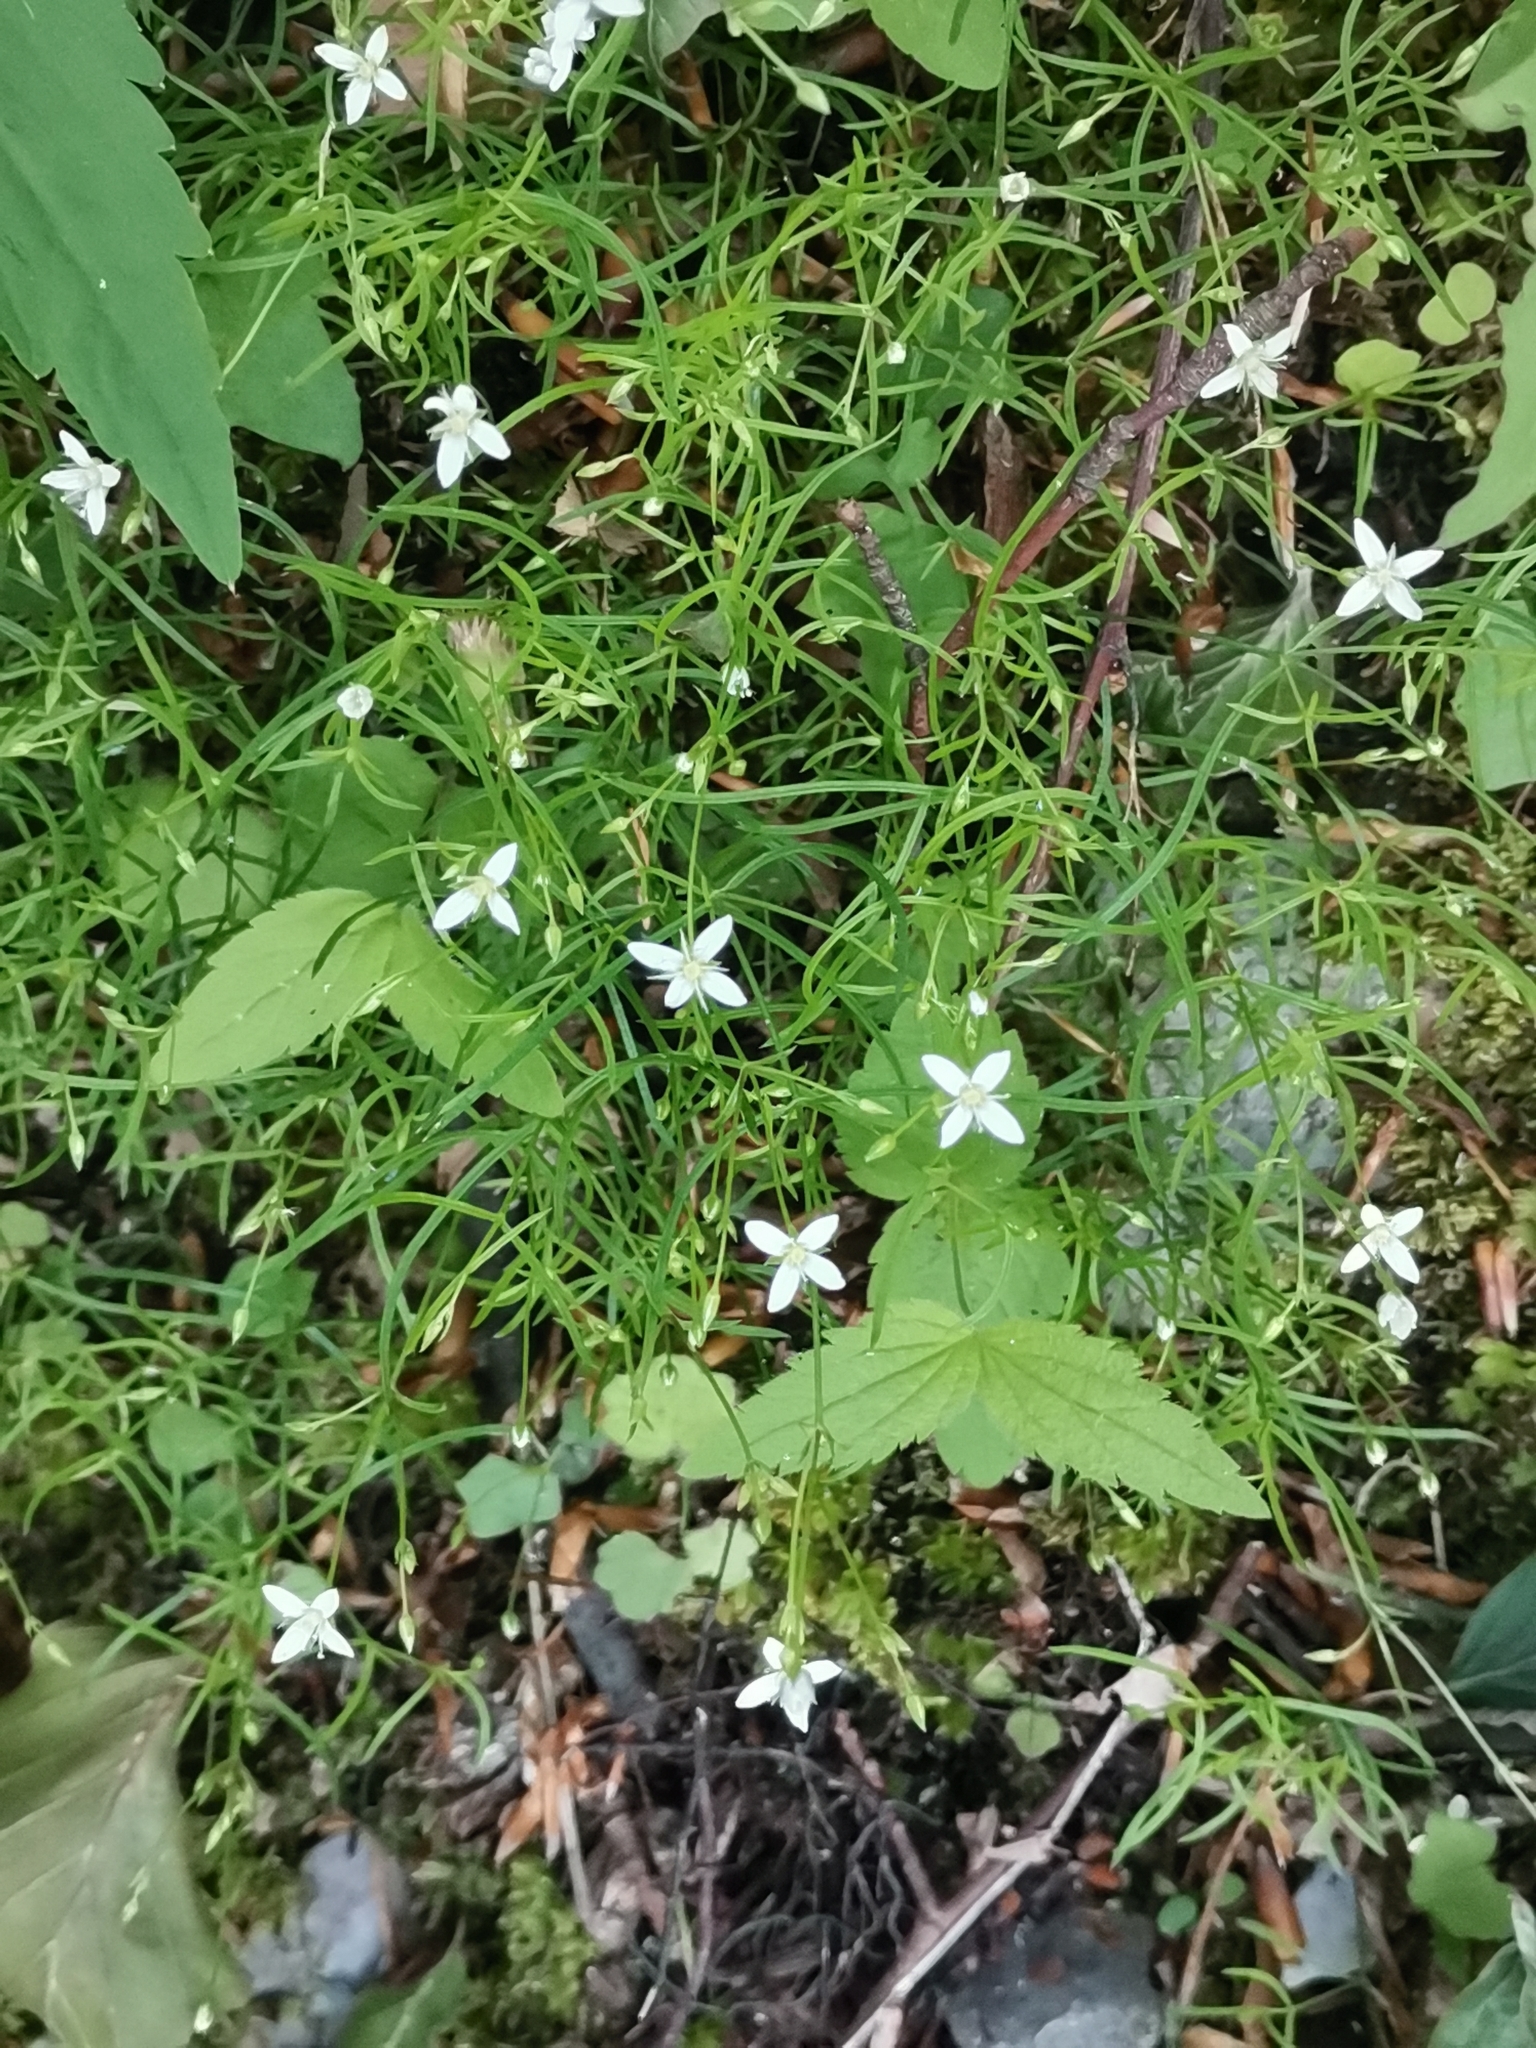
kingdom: Plantae
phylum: Tracheophyta
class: Magnoliopsida
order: Caryophyllales
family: Caryophyllaceae
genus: Moehringia
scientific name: Moehringia muscosa
